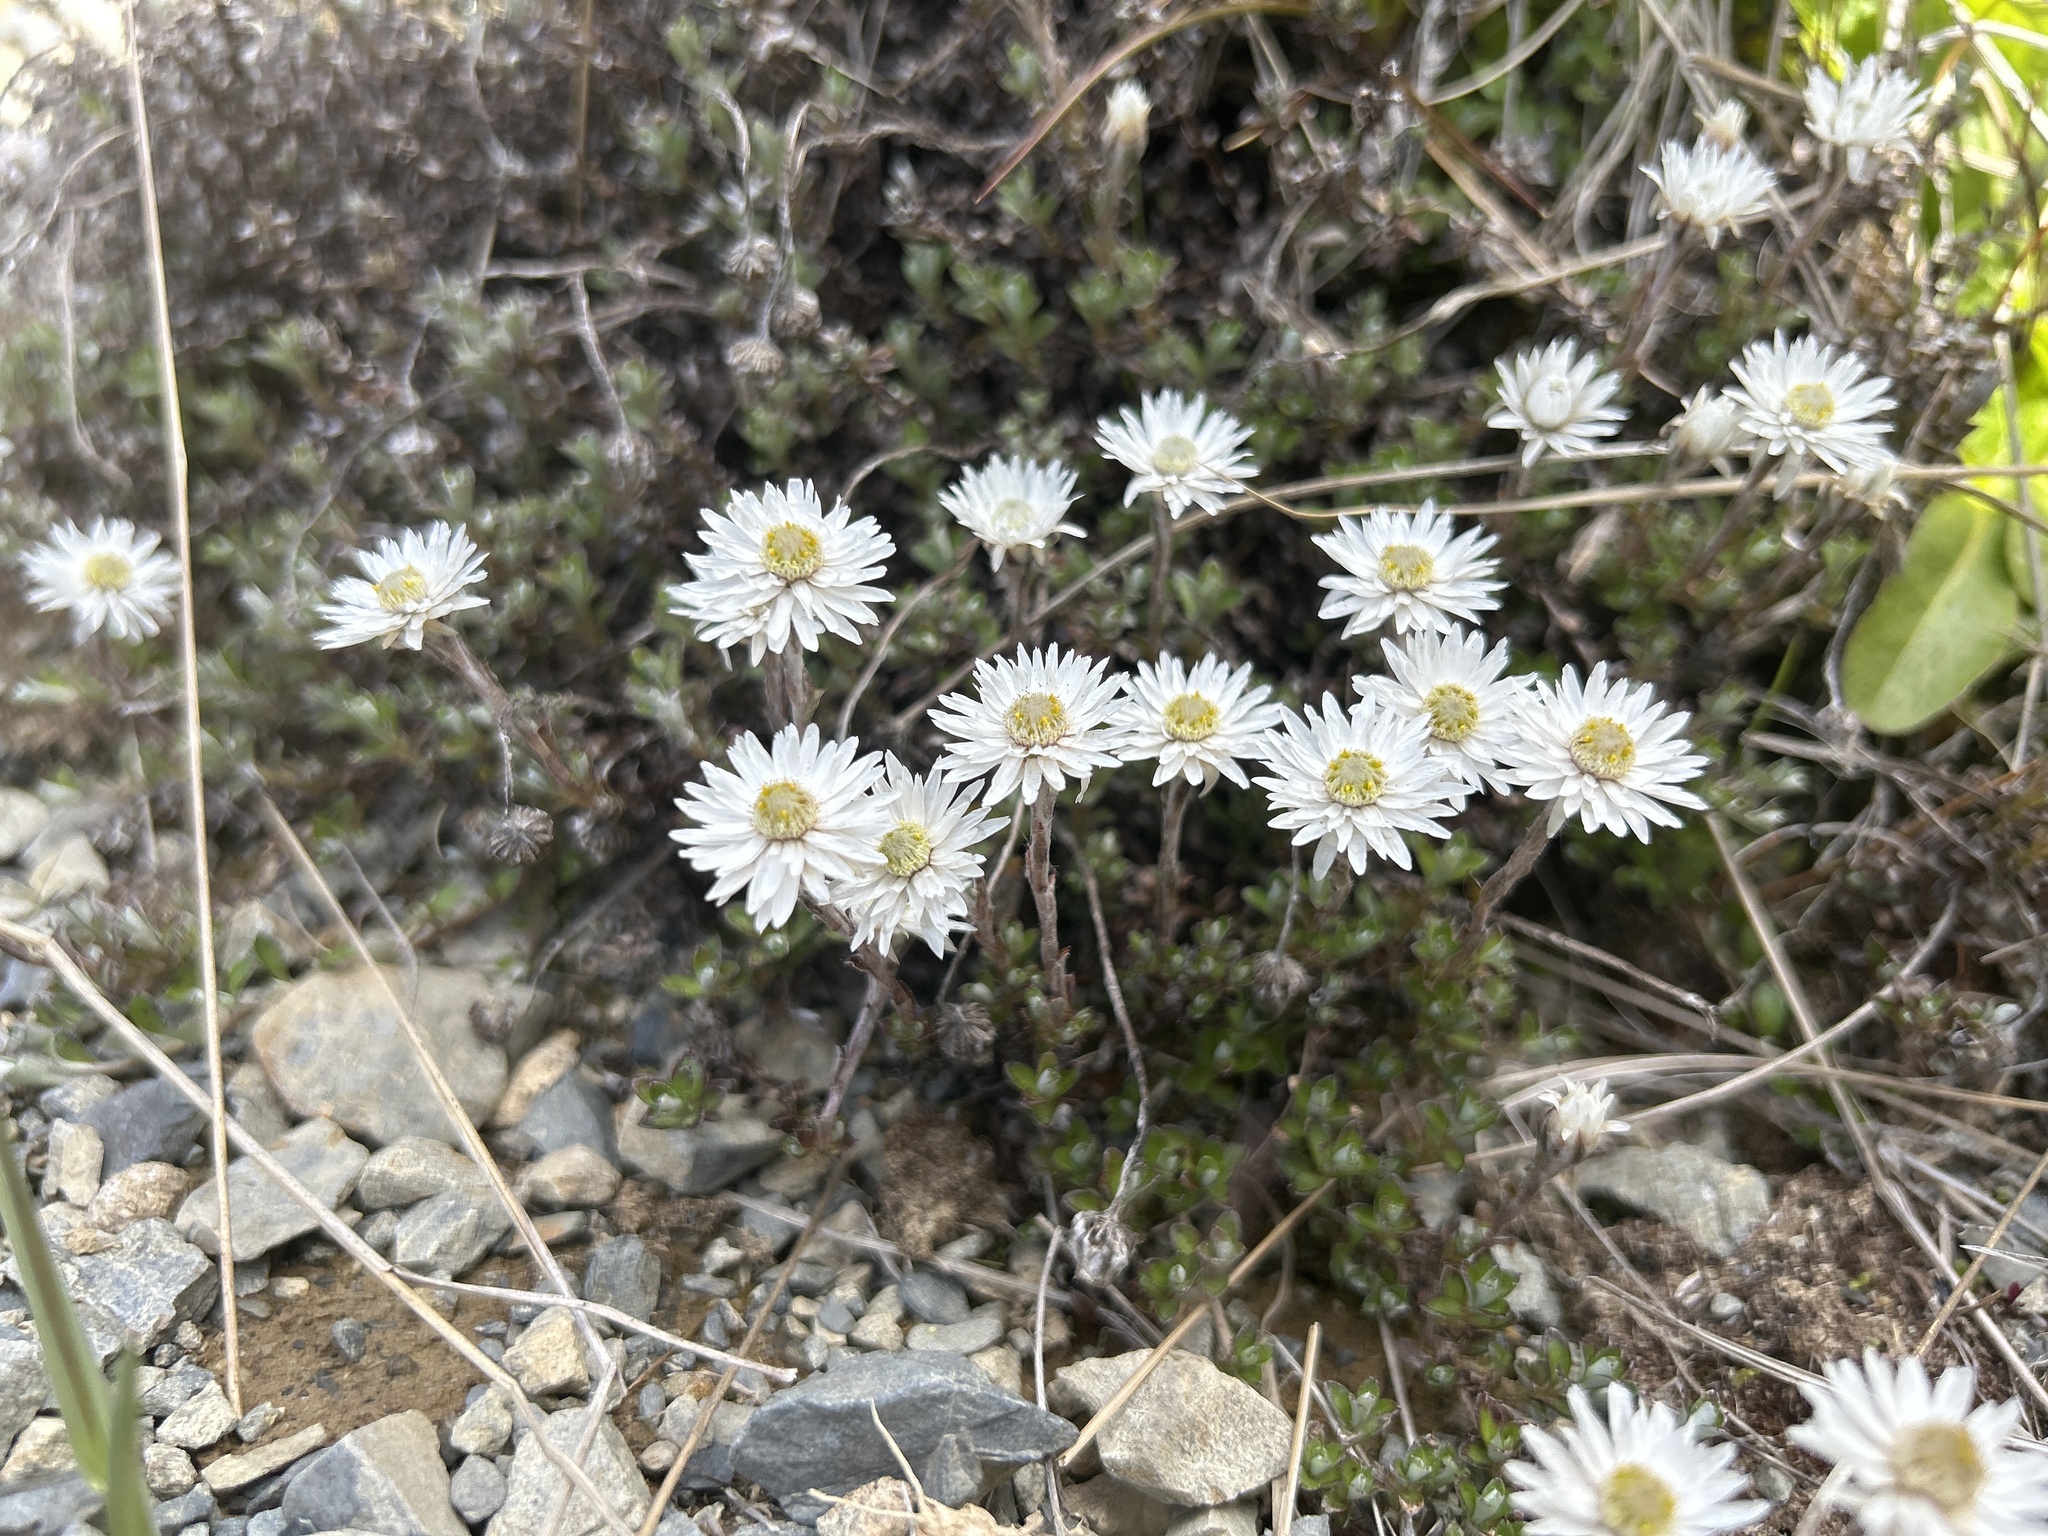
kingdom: Plantae
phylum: Tracheophyta
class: Magnoliopsida
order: Asterales
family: Asteraceae
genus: Anaphalioides
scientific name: Anaphalioides bellidioides
